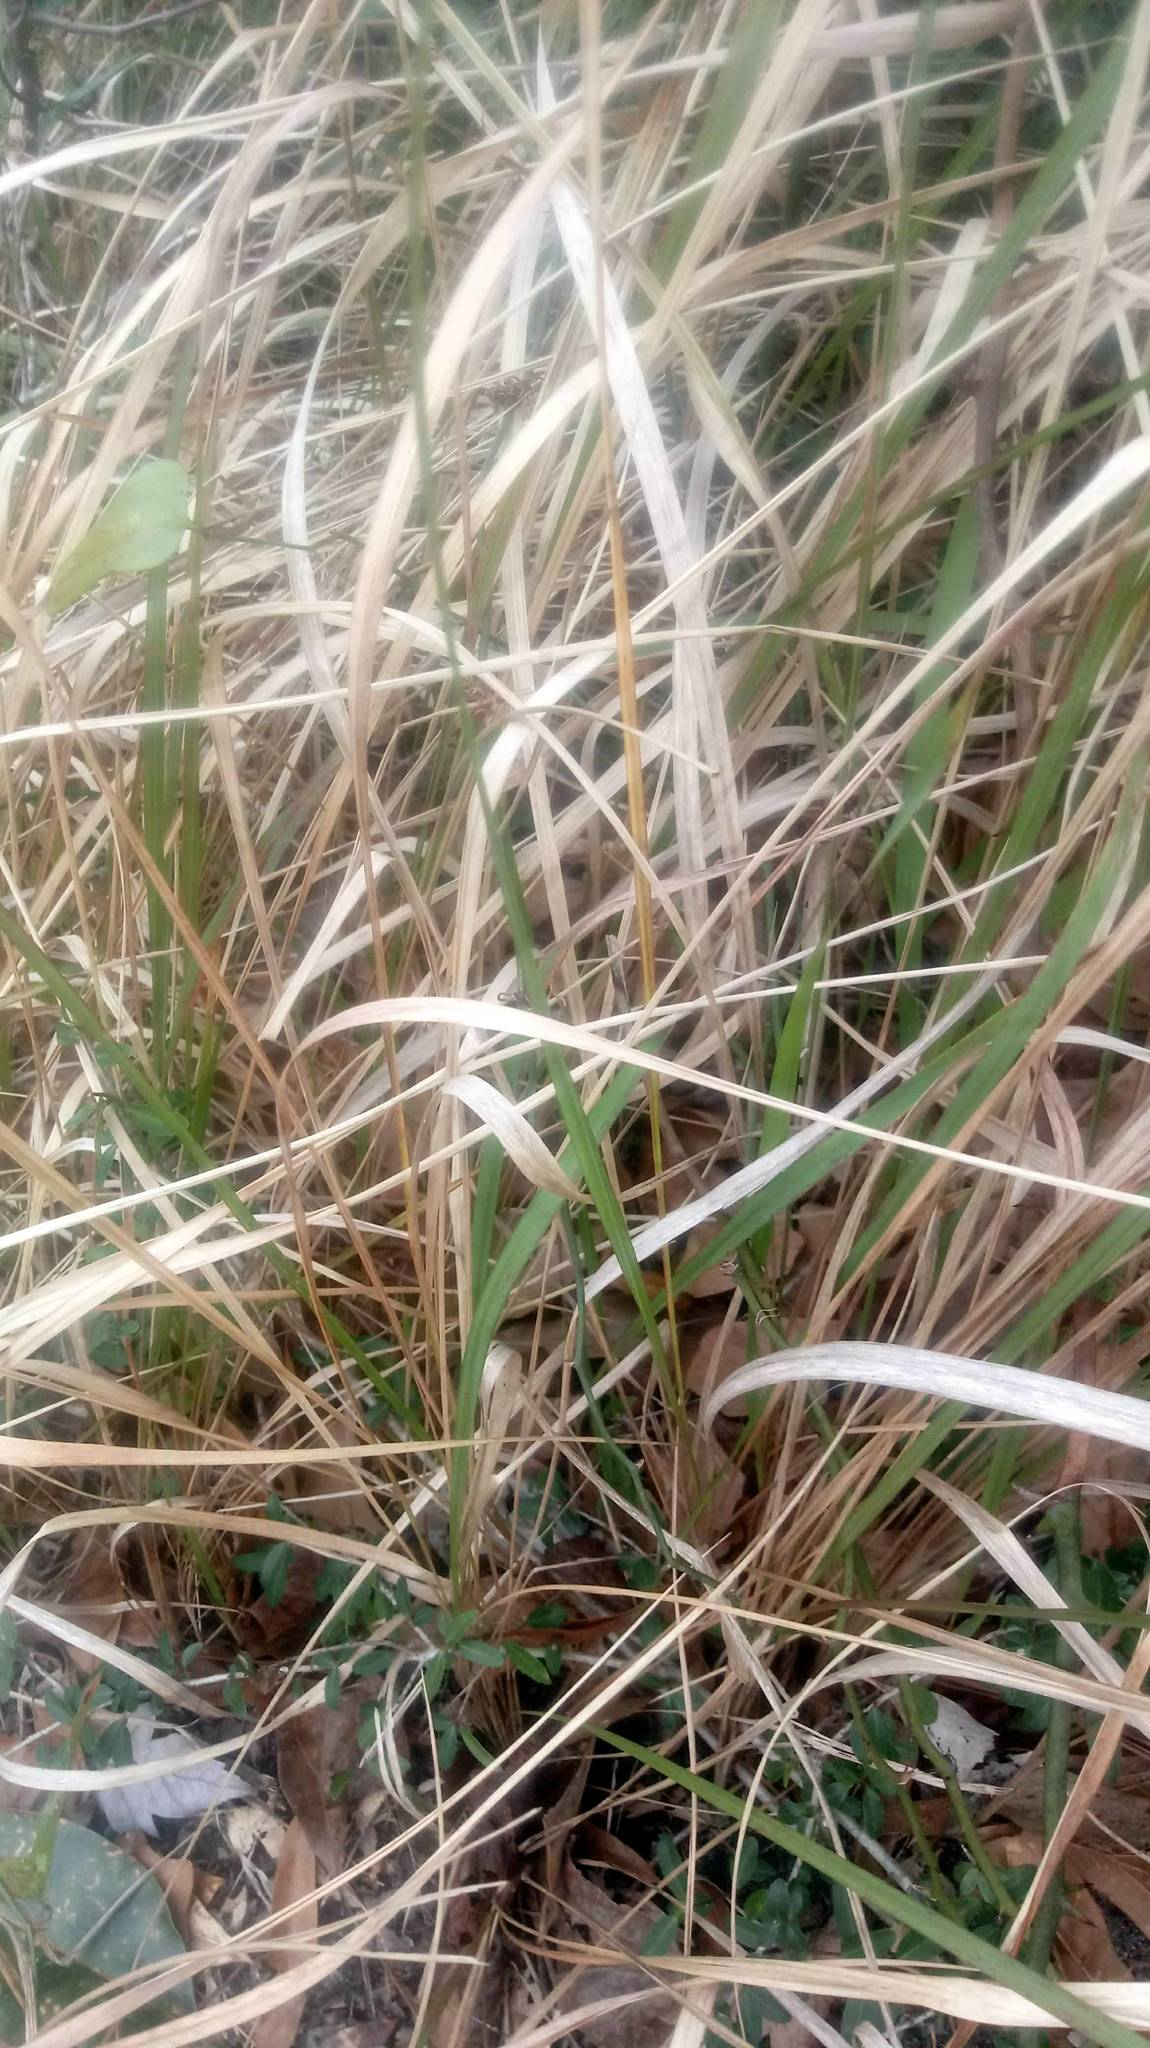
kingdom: Plantae
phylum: Tracheophyta
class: Liliopsida
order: Poales
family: Poaceae
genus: Imperata
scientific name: Imperata cylindrica
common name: Cogongrass
